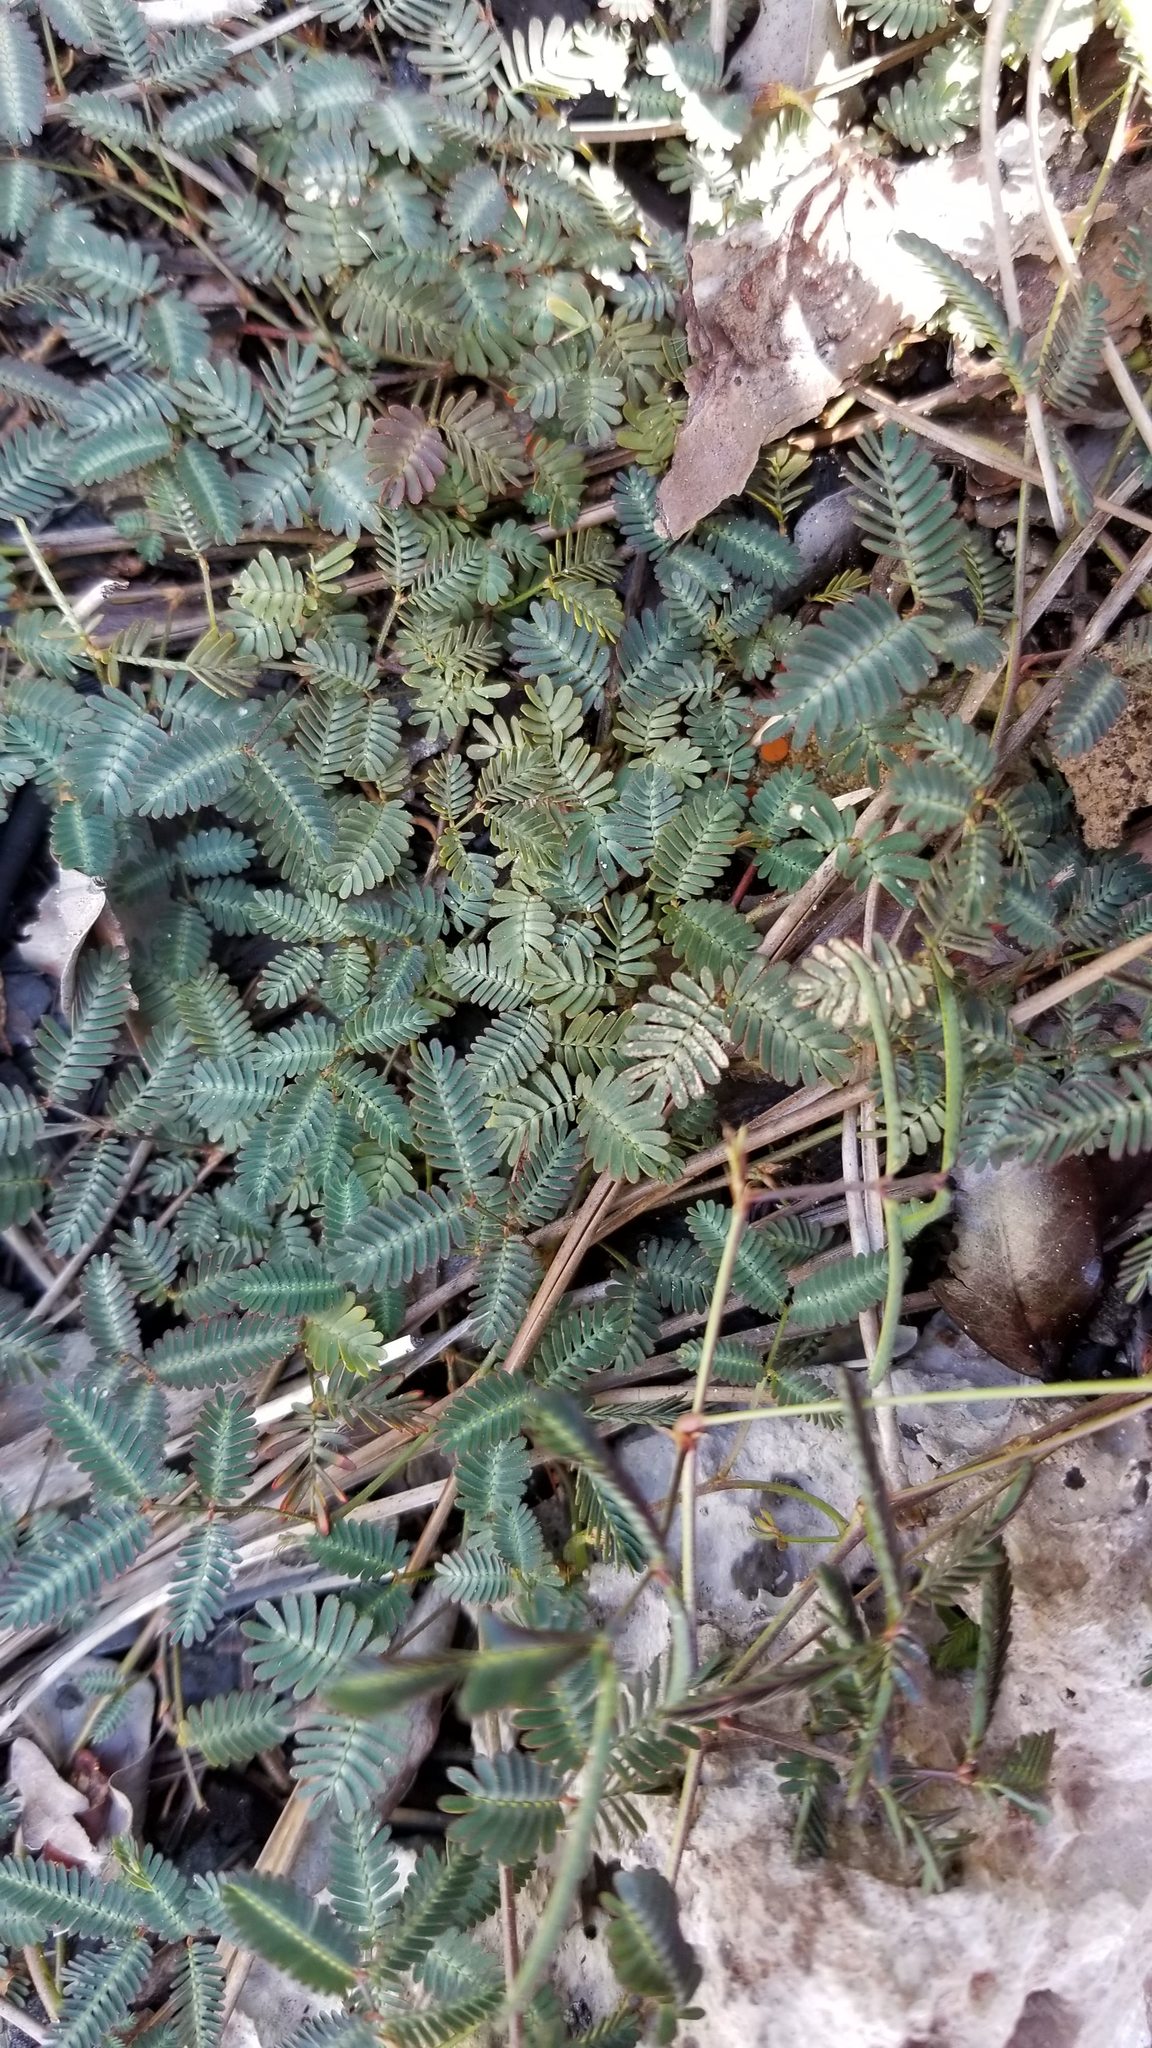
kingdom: Plantae
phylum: Tracheophyta
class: Magnoliopsida
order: Fabales
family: Fabaceae
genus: Neptunia
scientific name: Neptunia pubescens
